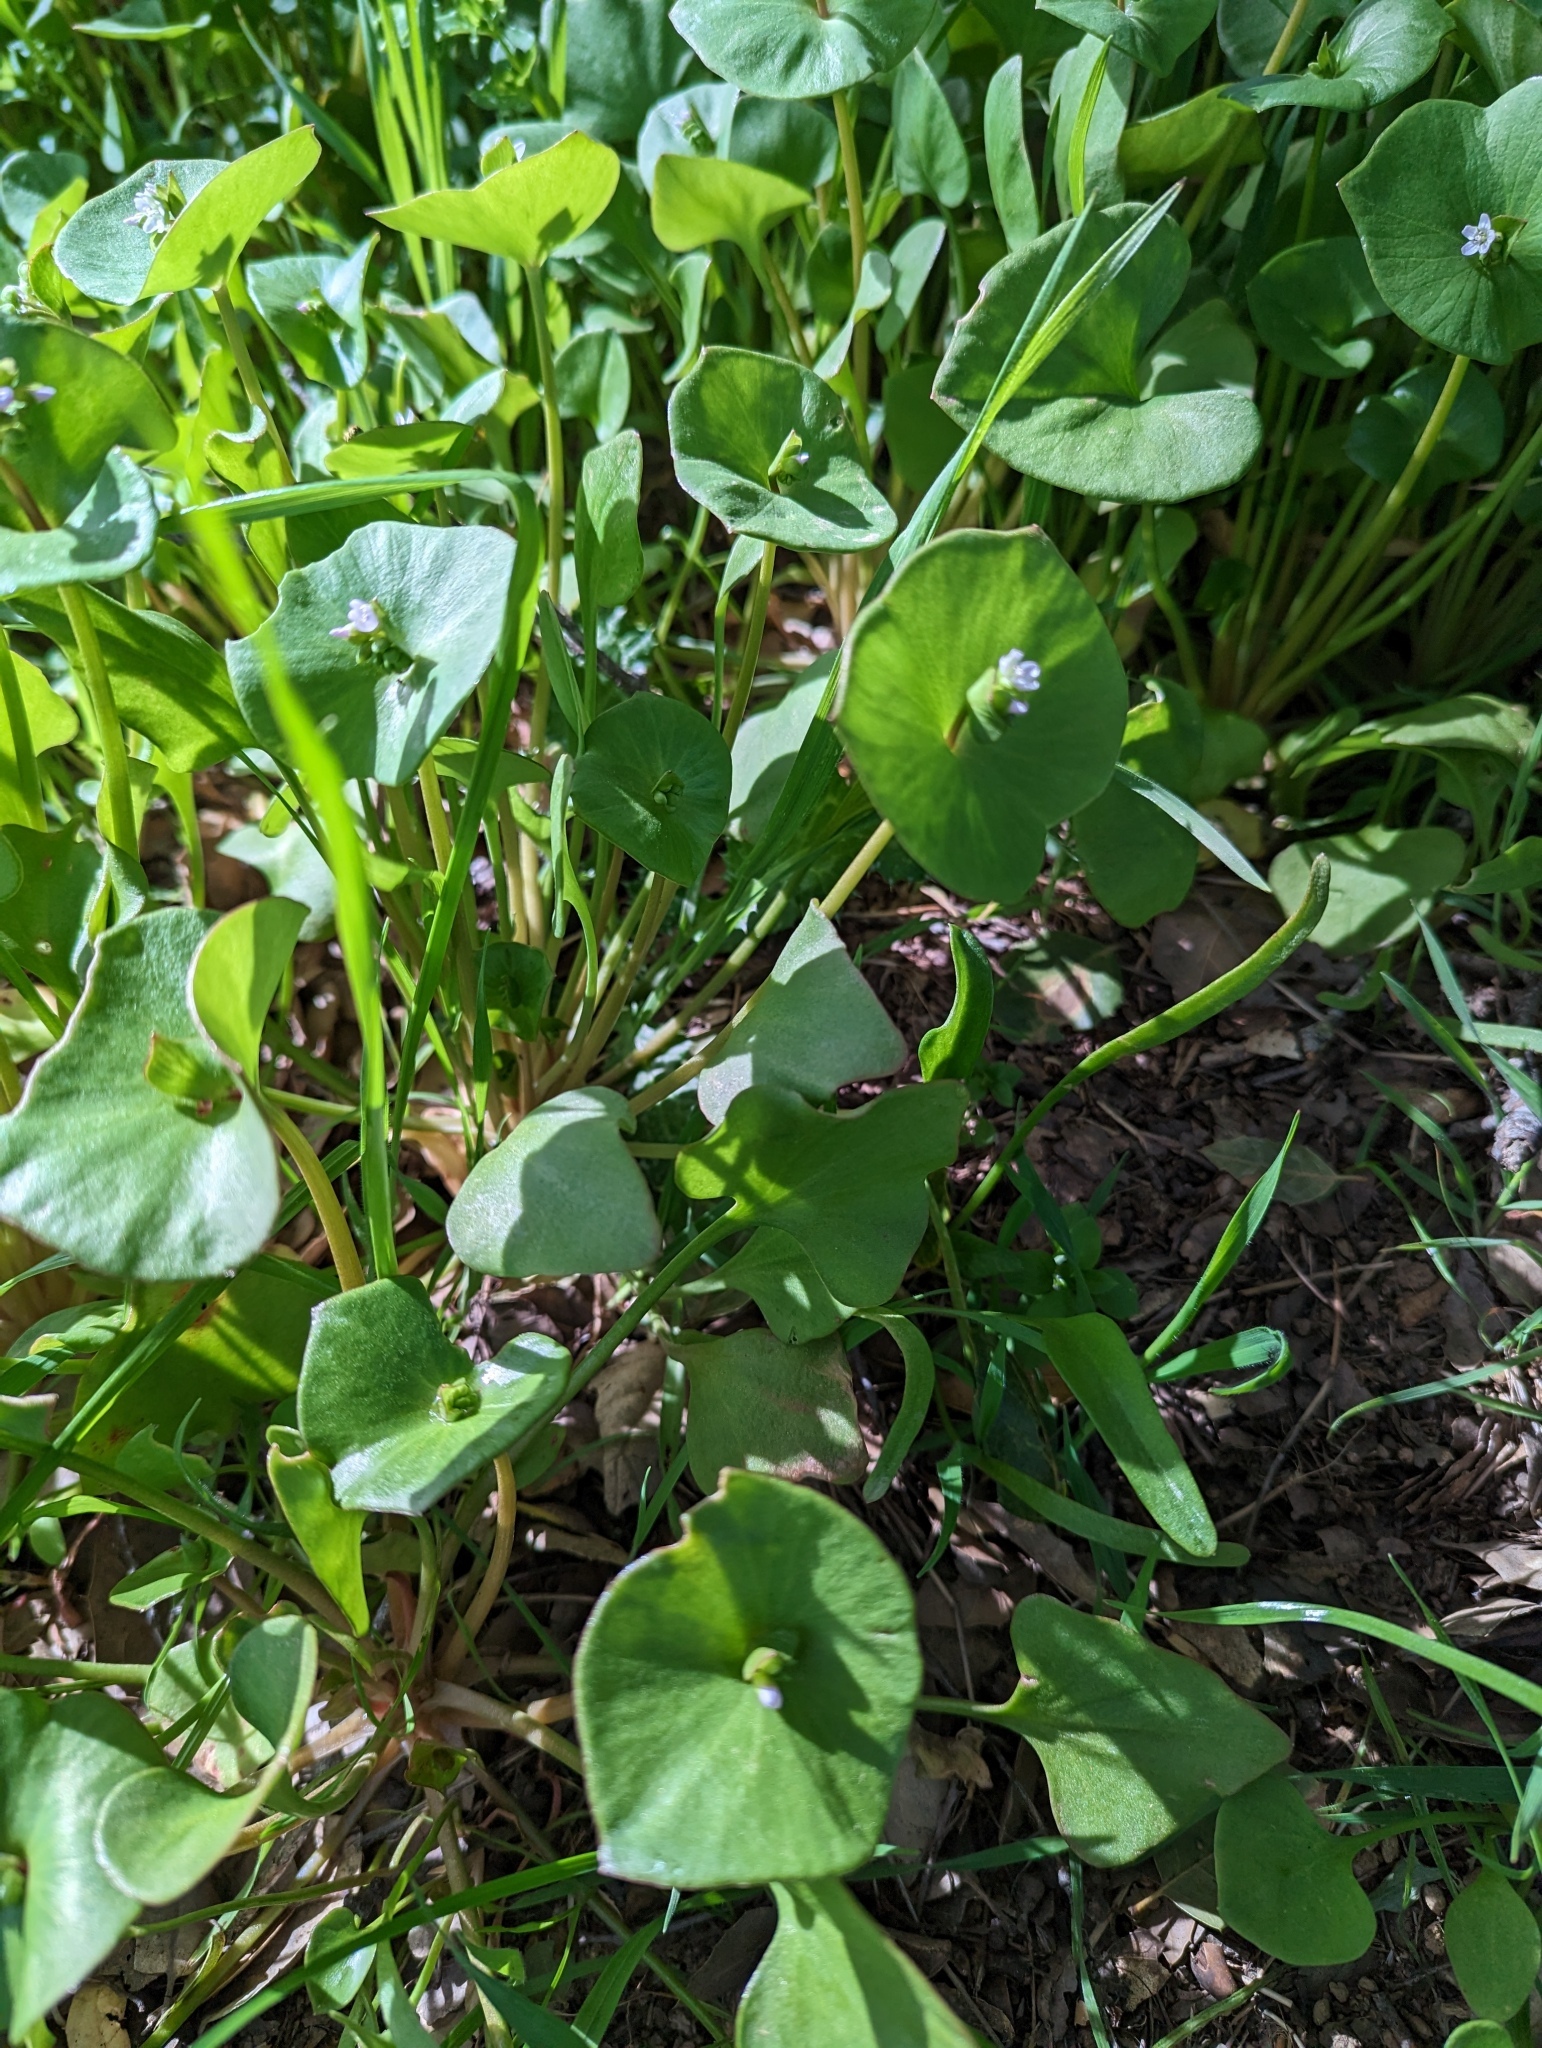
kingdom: Plantae
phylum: Tracheophyta
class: Magnoliopsida
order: Caryophyllales
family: Montiaceae
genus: Claytonia
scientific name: Claytonia perfoliata
